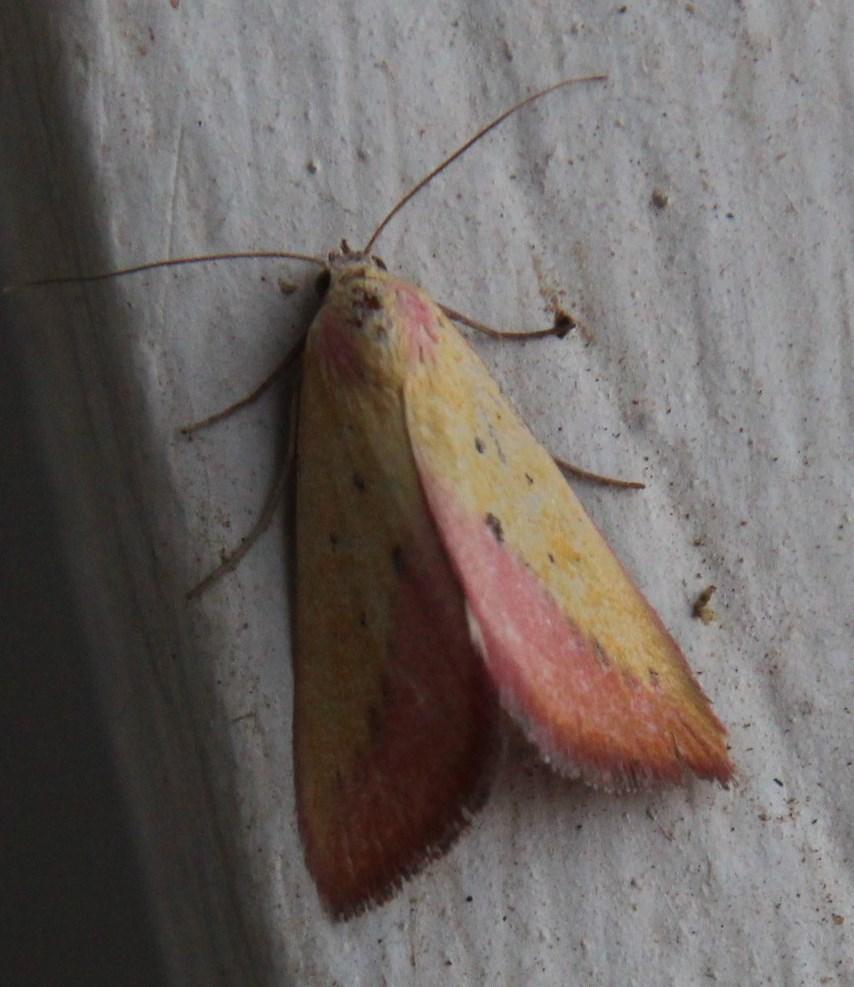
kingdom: Animalia
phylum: Arthropoda
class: Insecta
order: Lepidoptera
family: Erebidae
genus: Phytometra
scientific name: Phytometra sacraria
